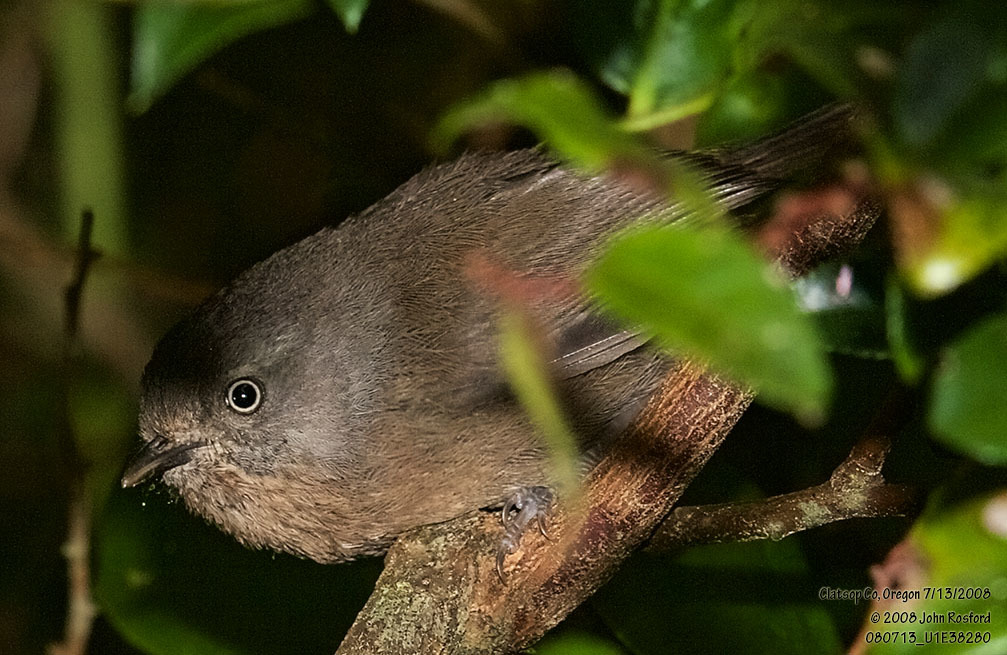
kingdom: Animalia
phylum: Chordata
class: Aves
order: Passeriformes
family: Sylviidae
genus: Chamaea
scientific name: Chamaea fasciata
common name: Wrentit
